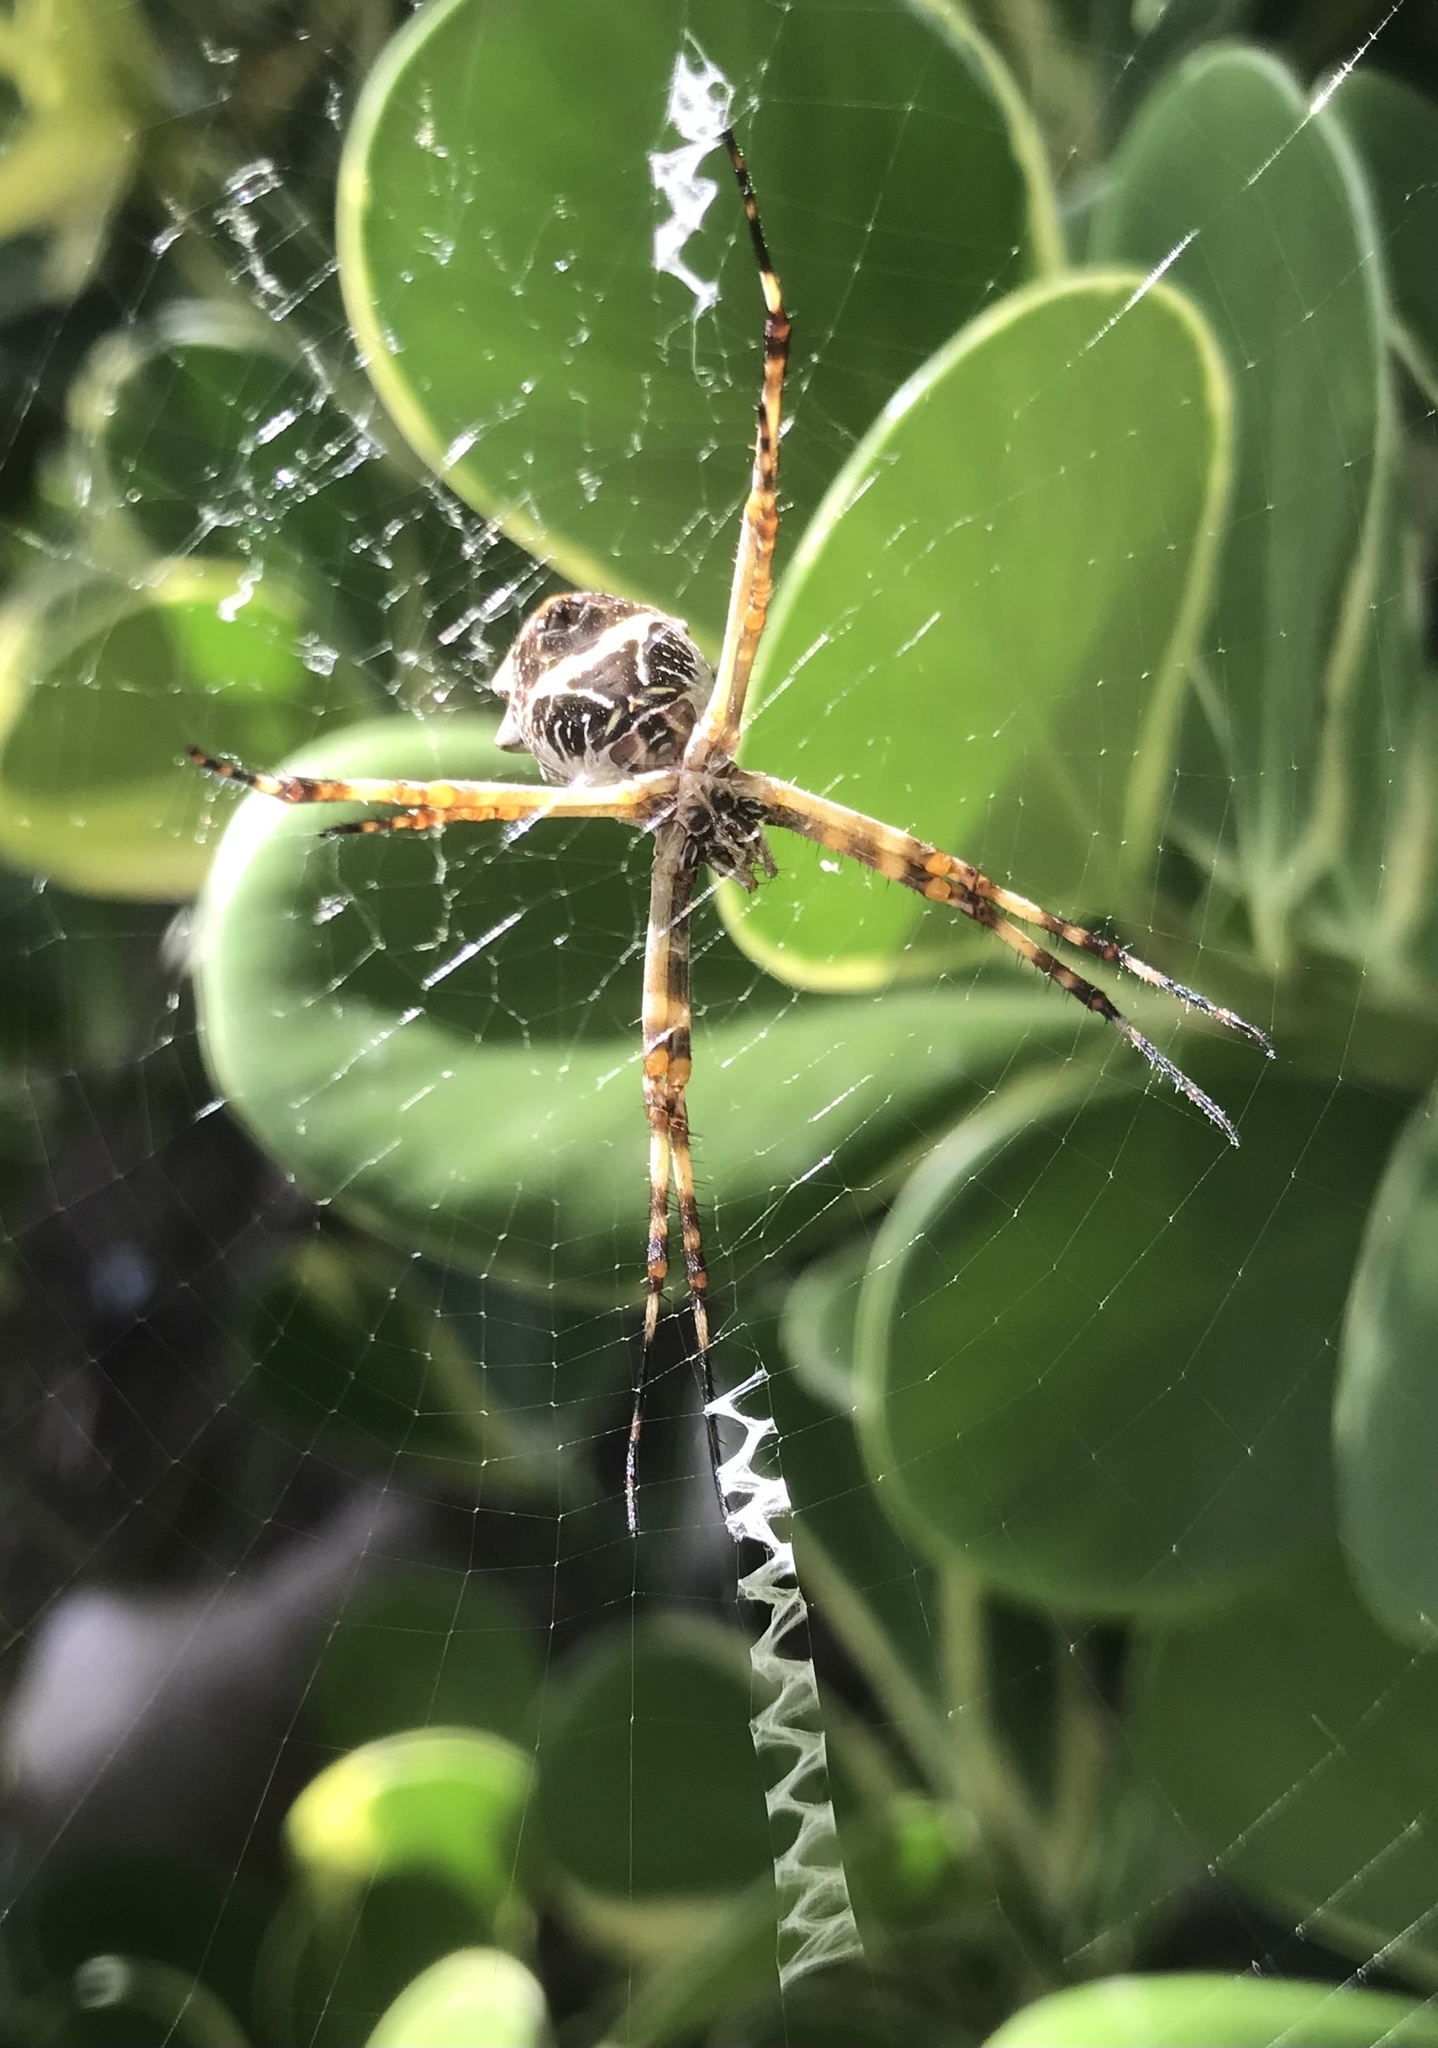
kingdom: Animalia
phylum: Arthropoda
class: Arachnida
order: Araneae
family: Araneidae
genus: Argiope
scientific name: Argiope argentata
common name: Orb weavers
